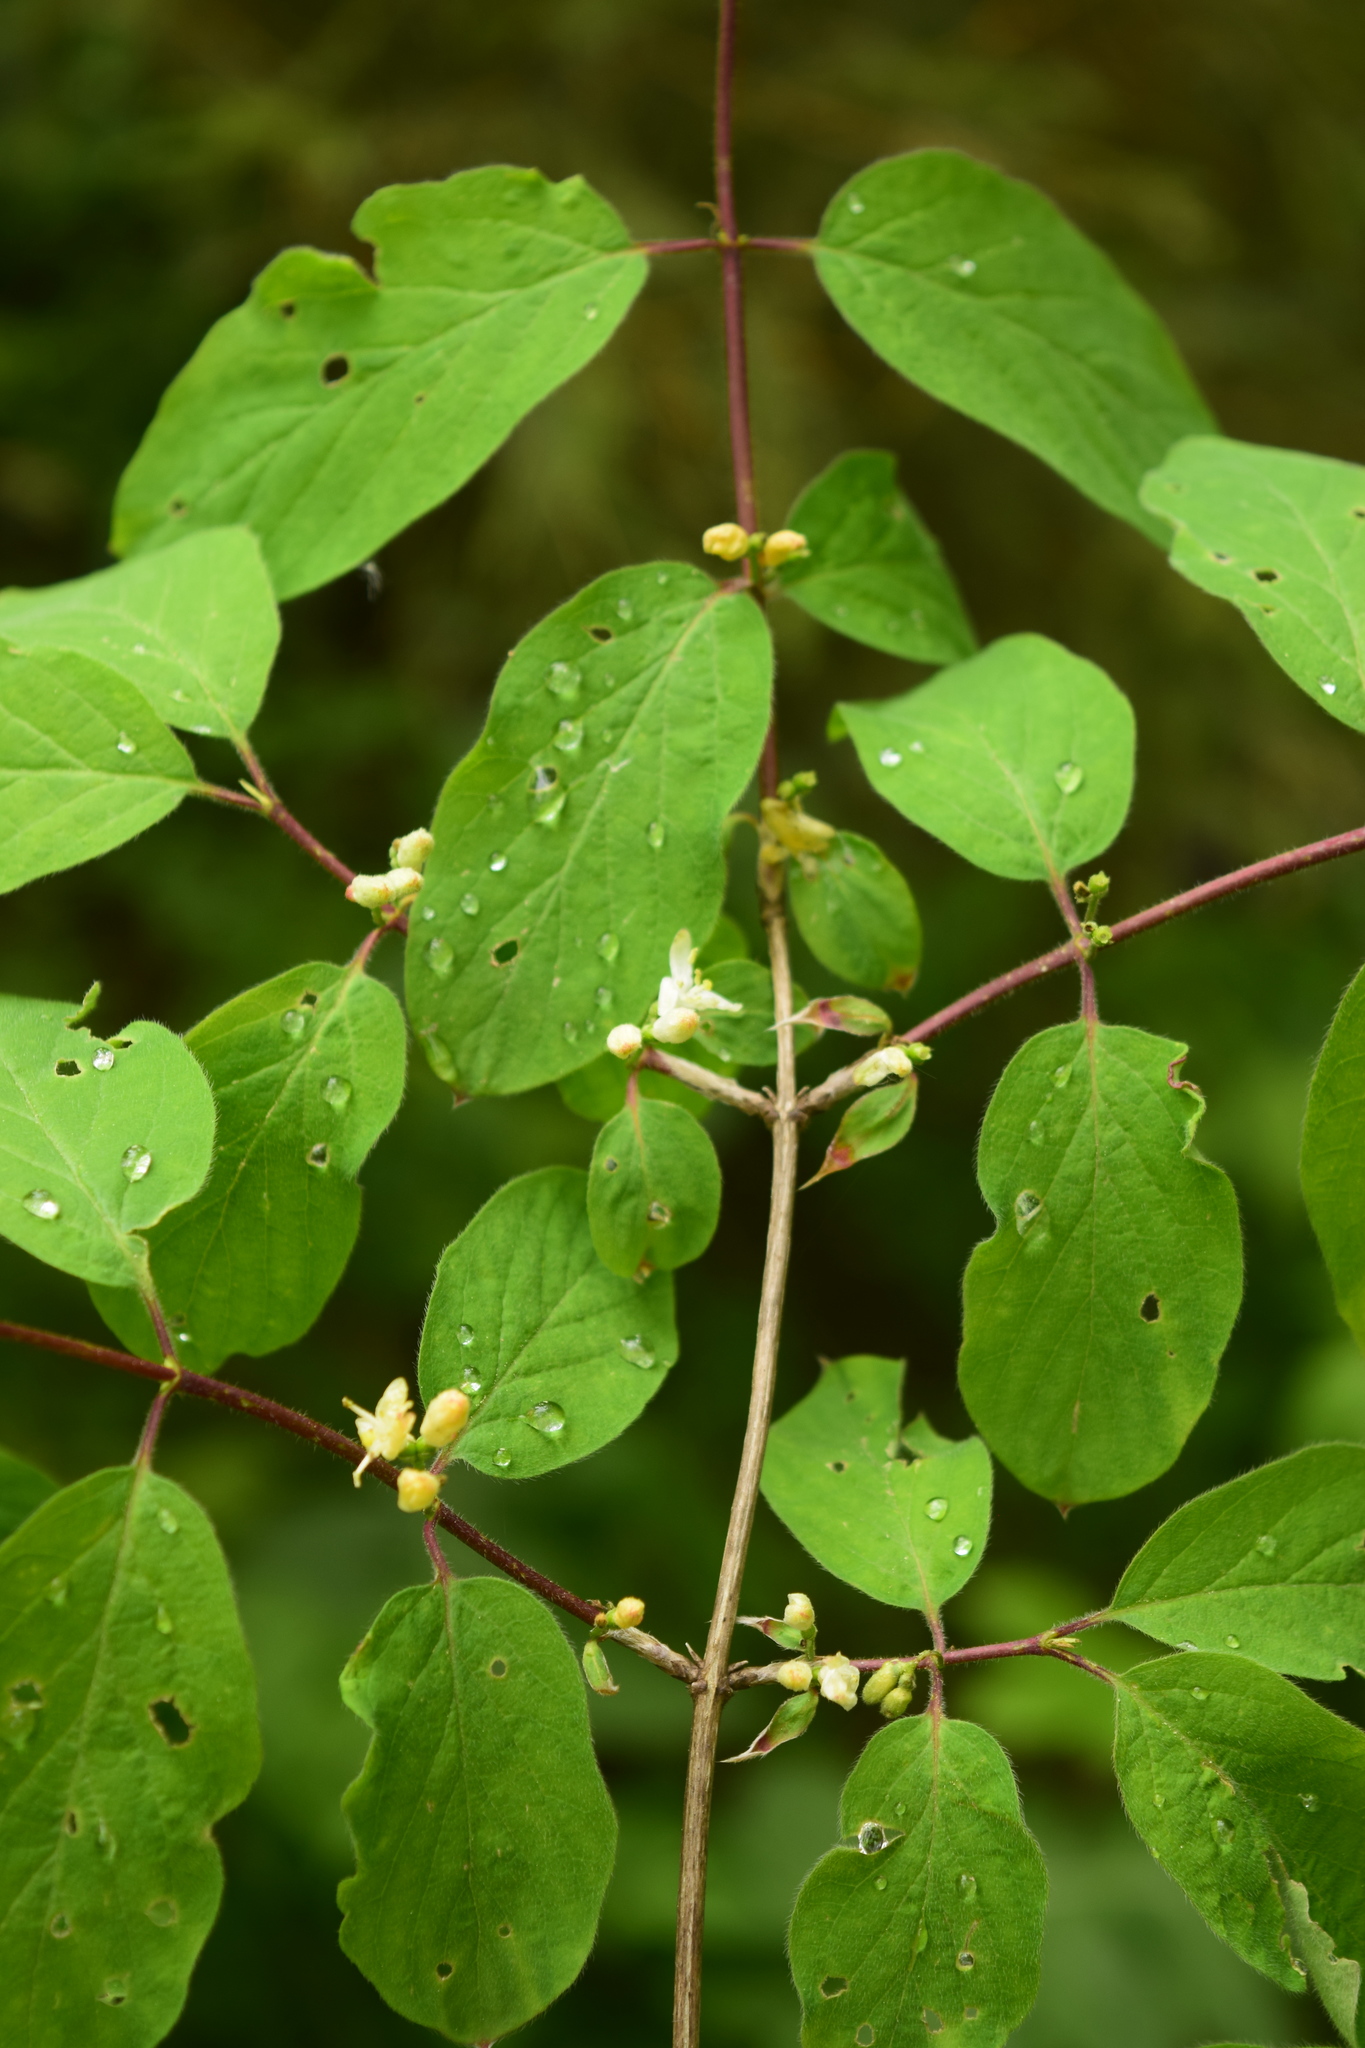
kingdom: Plantae
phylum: Tracheophyta
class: Magnoliopsida
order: Dipsacales
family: Caprifoliaceae
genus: Lonicera
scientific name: Lonicera xylosteum
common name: Fly honeysuckle
